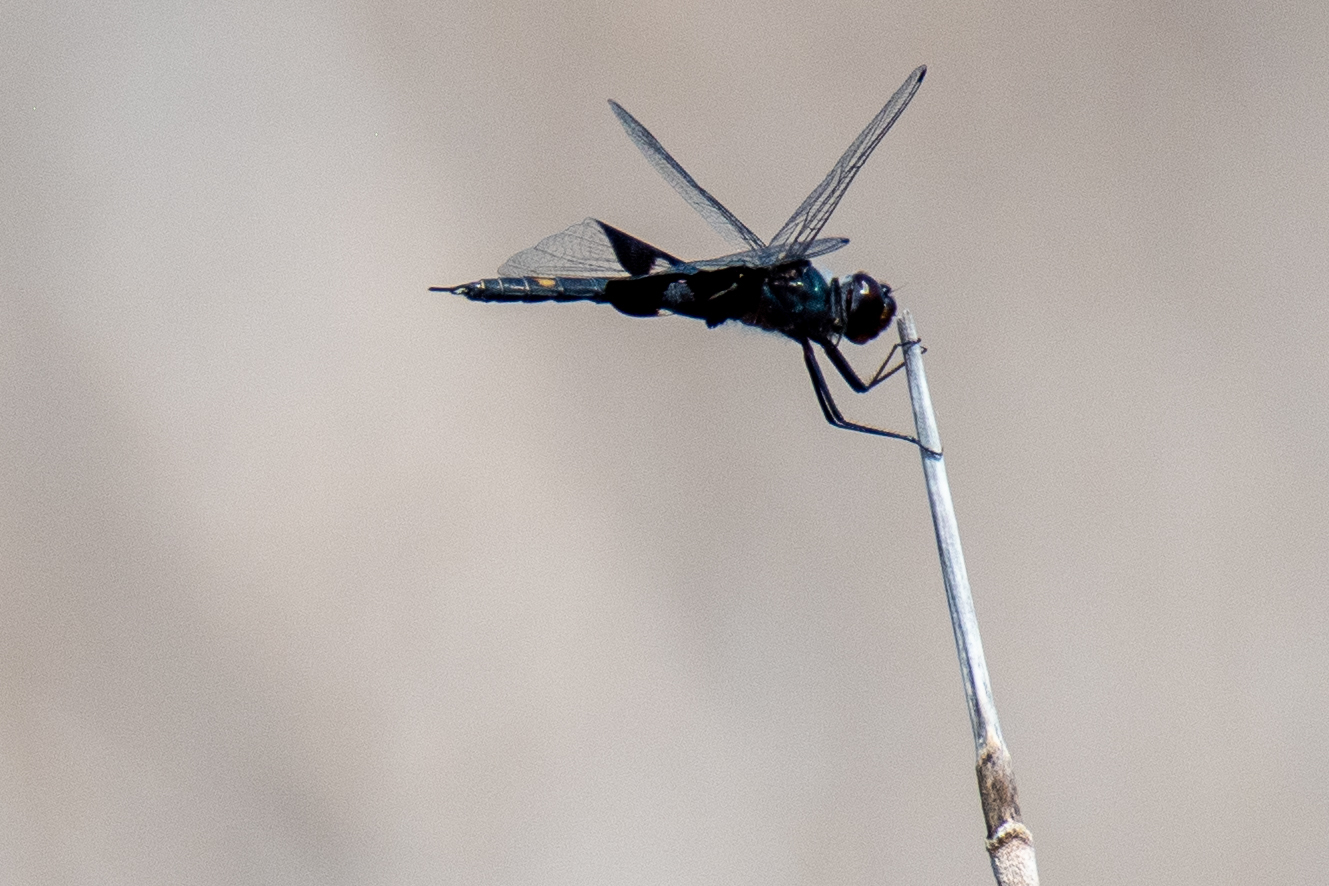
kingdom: Animalia
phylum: Arthropoda
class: Insecta
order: Odonata
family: Libellulidae
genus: Tramea
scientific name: Tramea lacerata
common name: Black saddlebags
